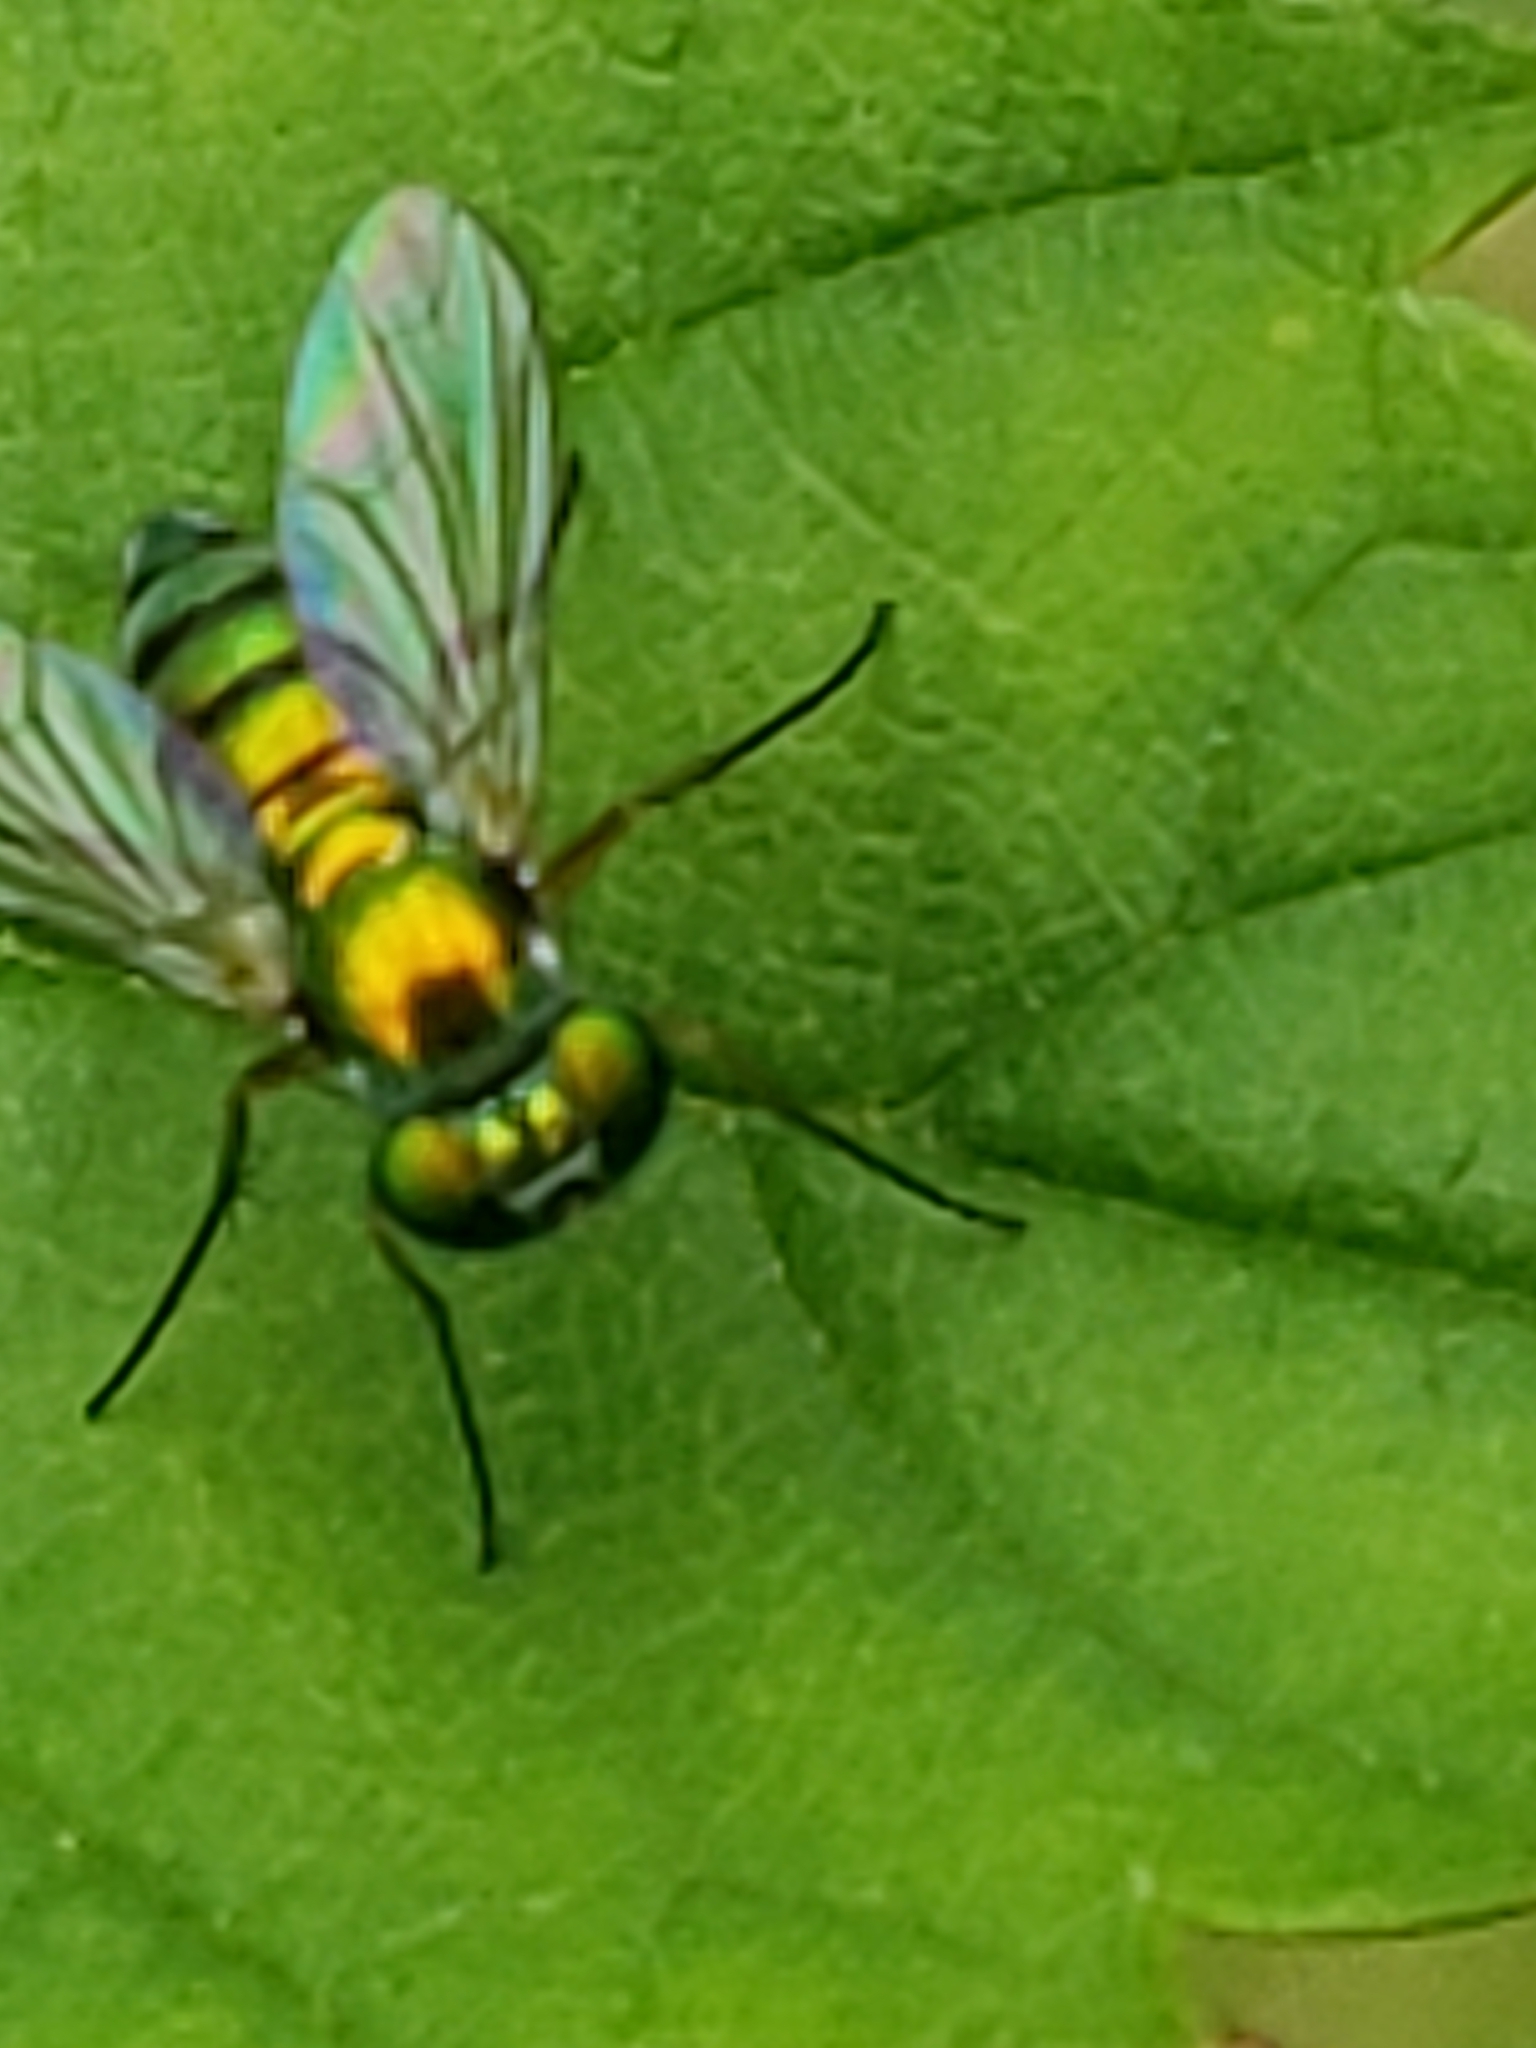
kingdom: Animalia
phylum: Arthropoda
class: Insecta
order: Diptera
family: Dolichopodidae
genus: Condylostylus
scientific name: Condylostylus
